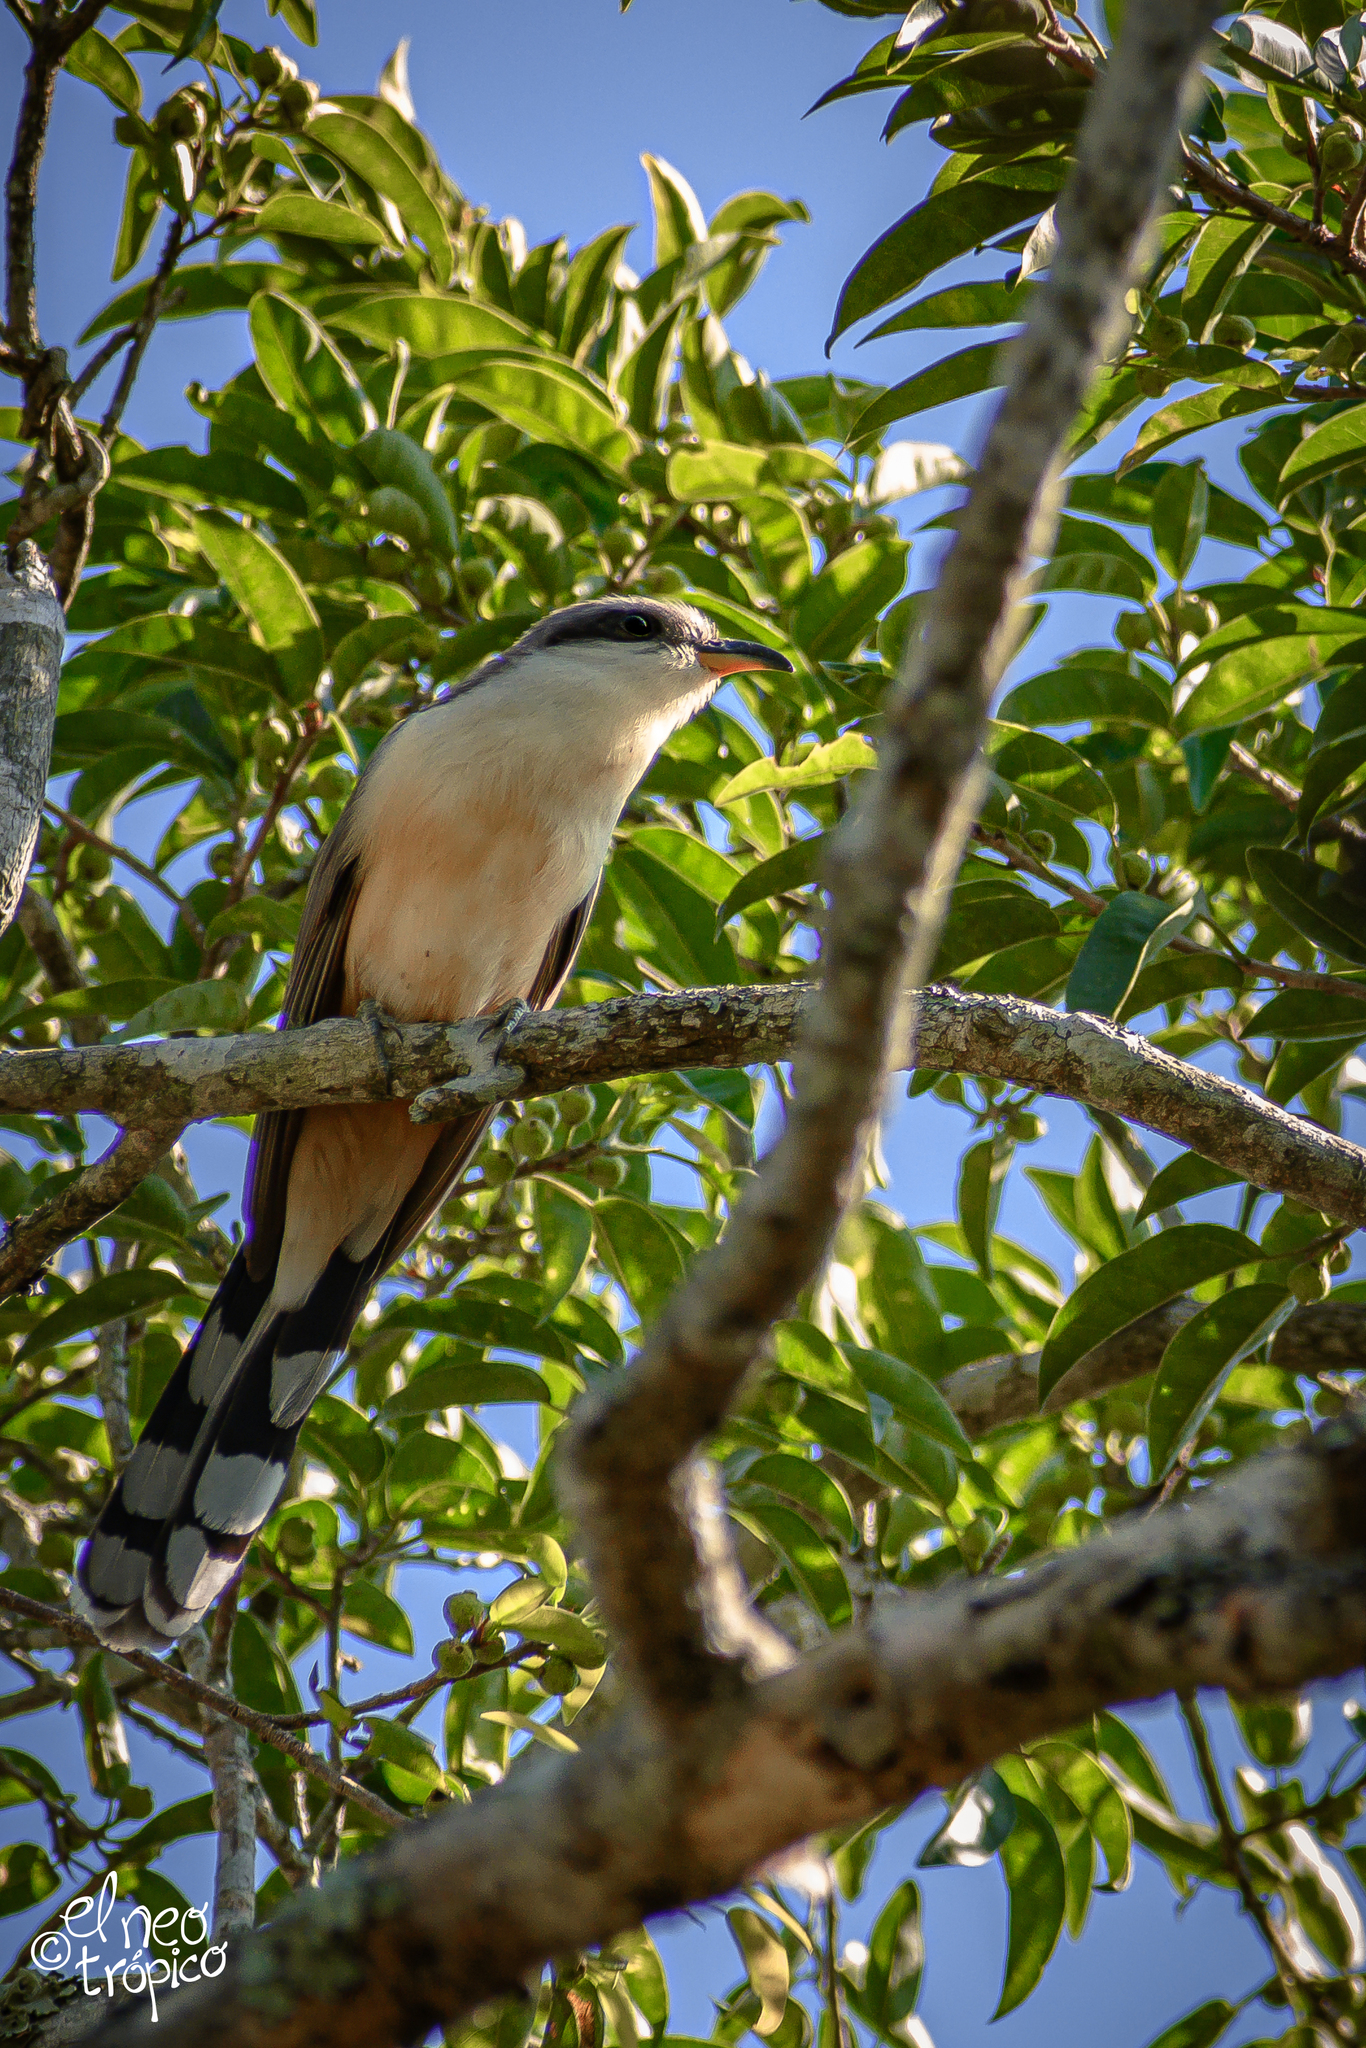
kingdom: Animalia
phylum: Chordata
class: Aves
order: Cuculiformes
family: Cuculidae
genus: Coccyzus
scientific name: Coccyzus minor
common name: Mangrove cuckoo
